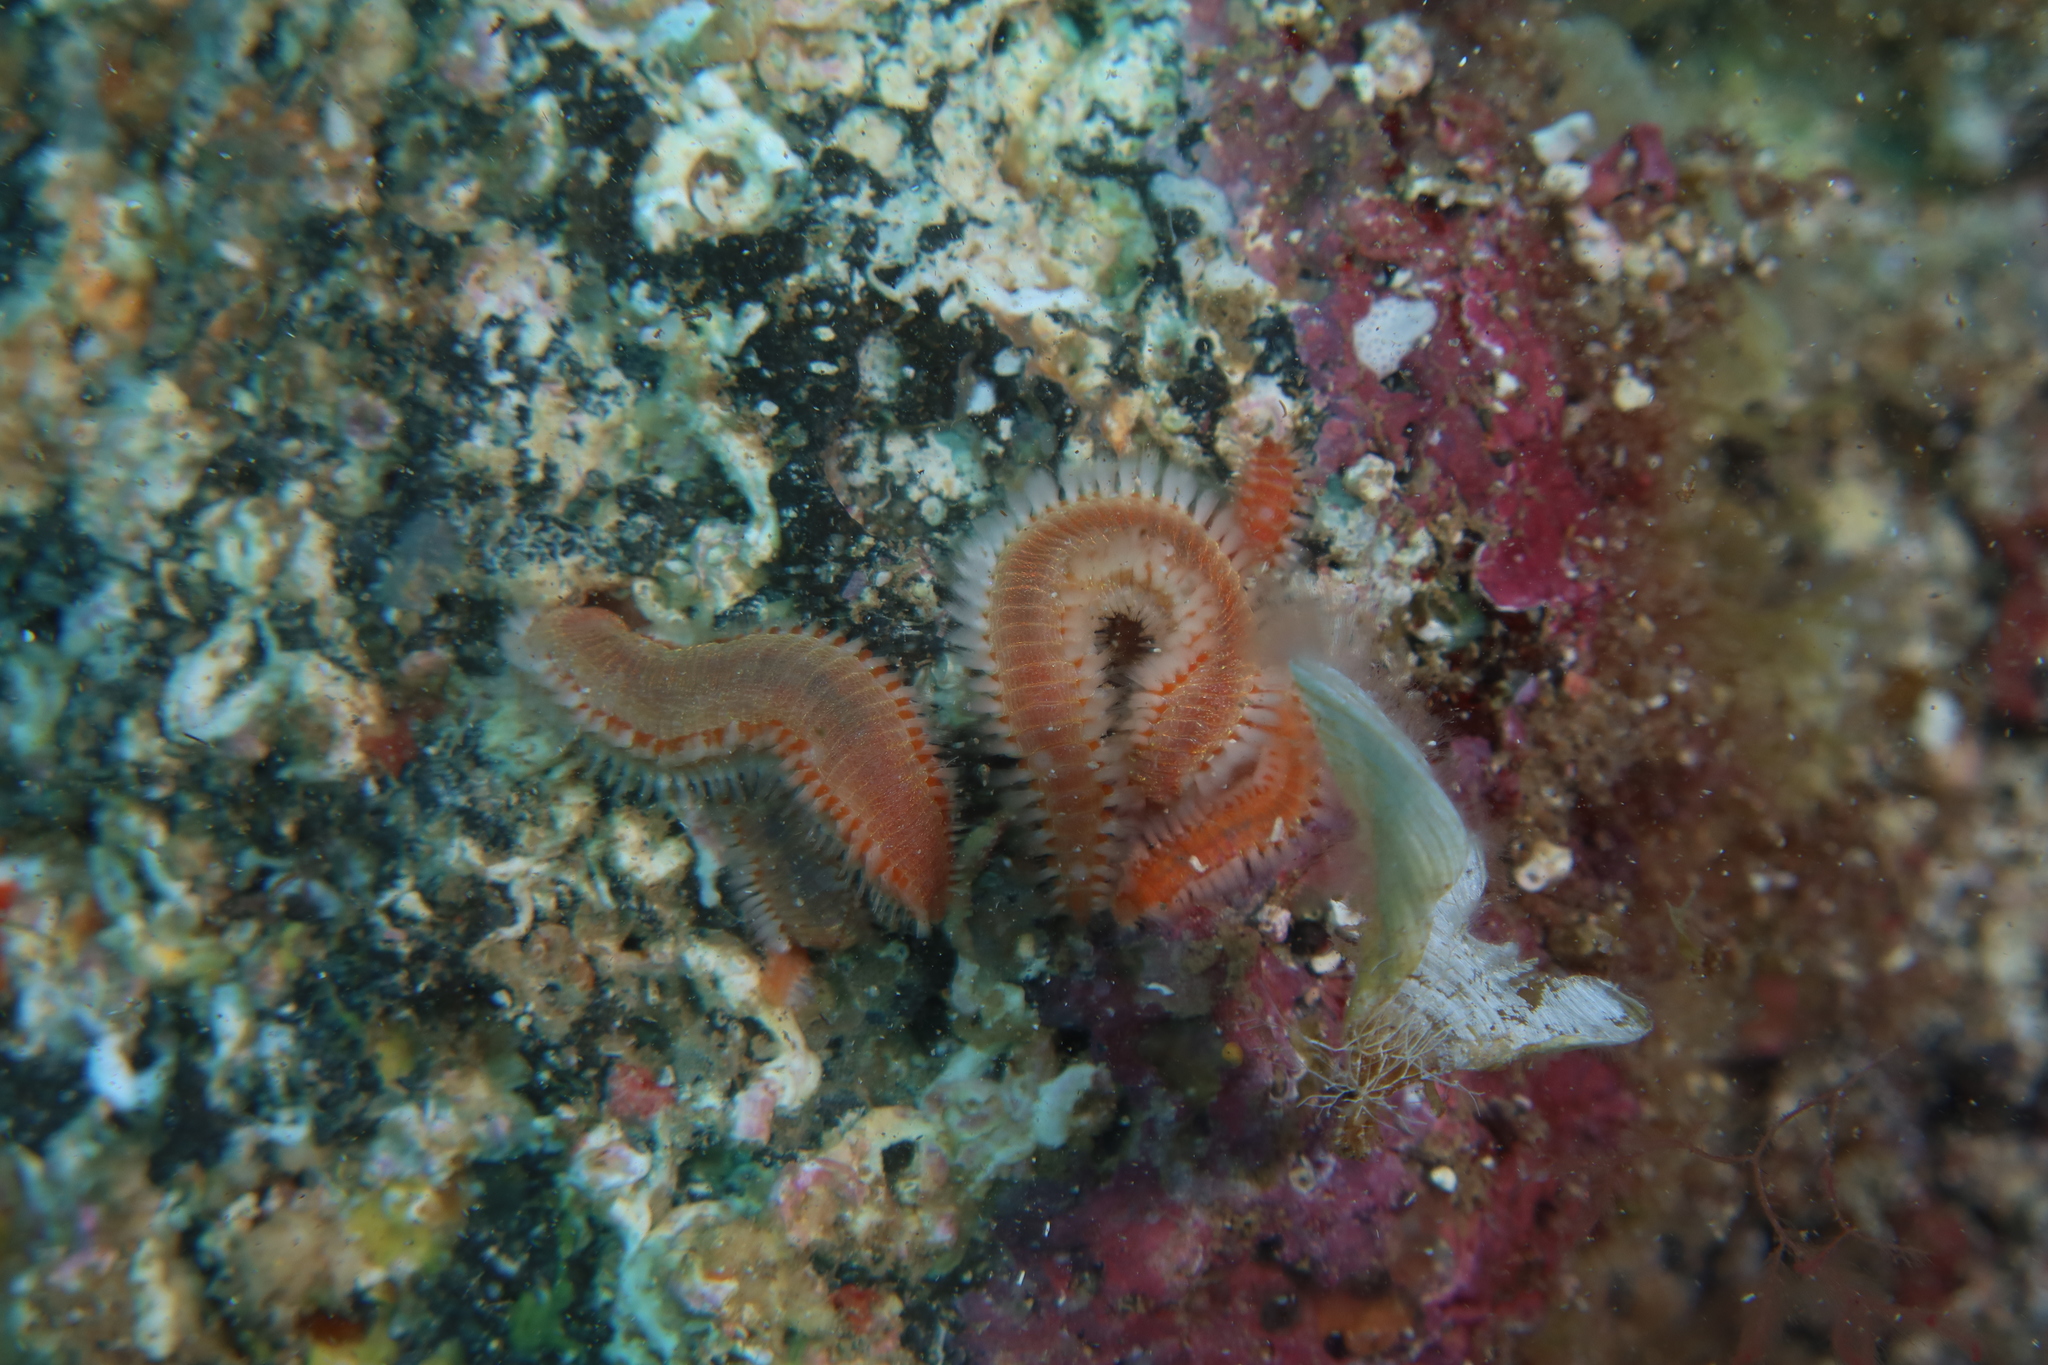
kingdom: Animalia
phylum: Annelida
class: Polychaeta
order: Amphinomida
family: Amphinomidae
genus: Eurythoe
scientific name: Eurythoe complanata
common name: Fireworm
